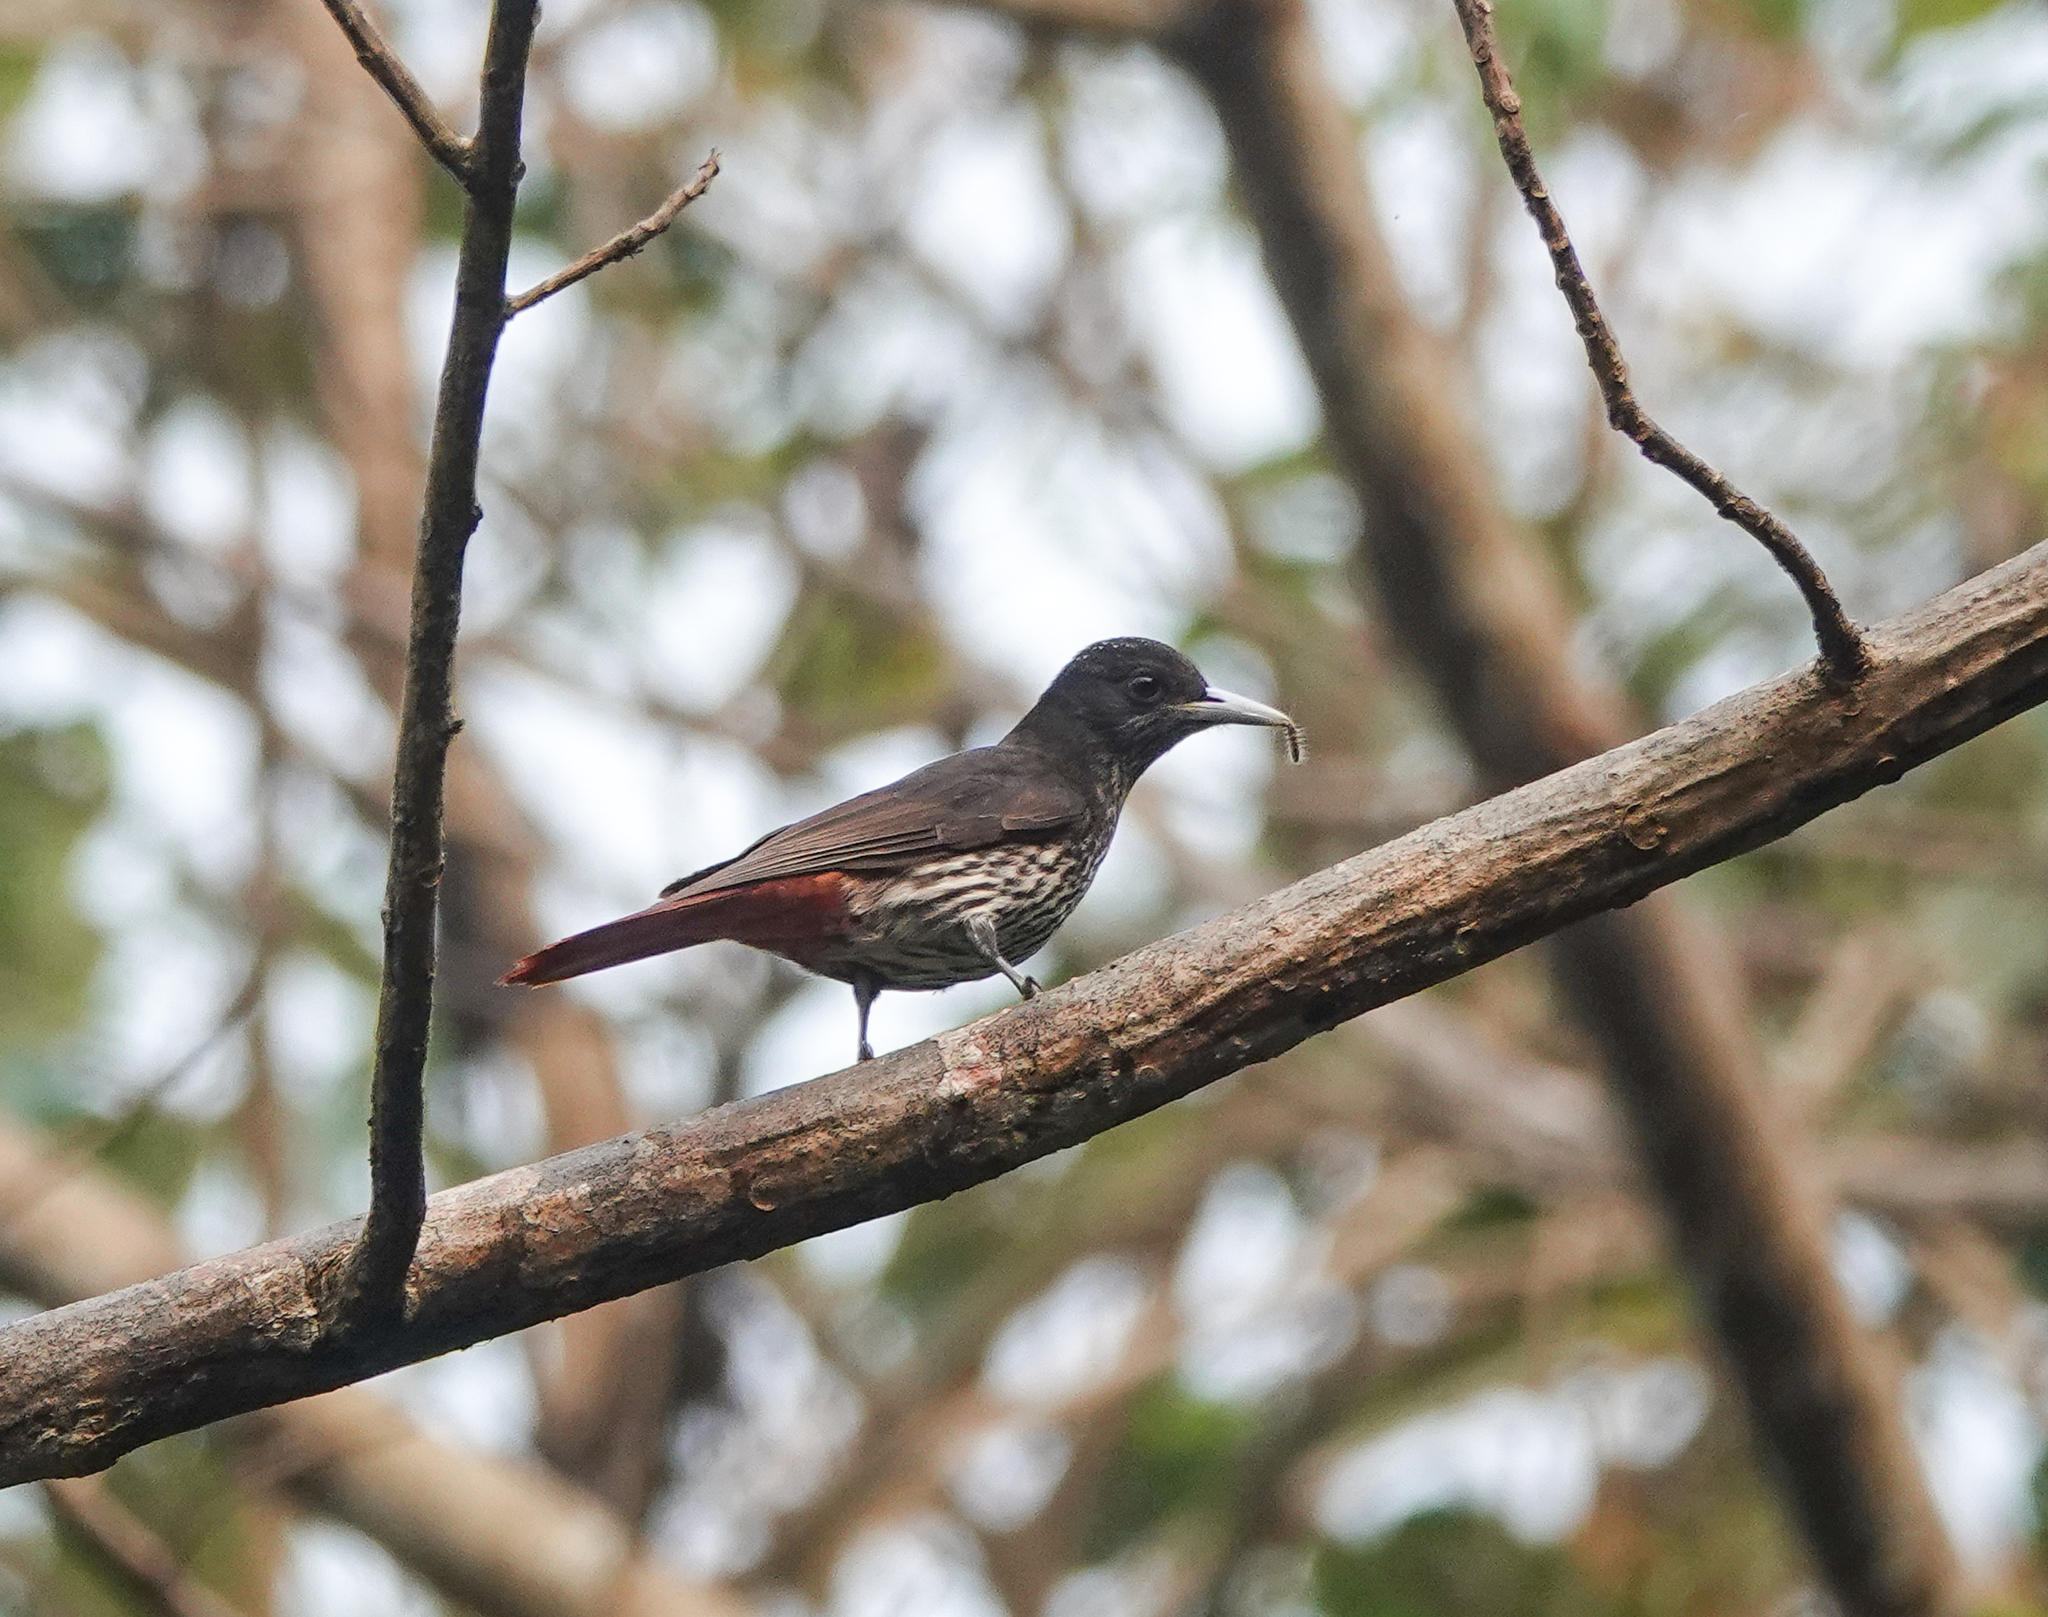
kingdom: Animalia
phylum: Chordata
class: Aves
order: Passeriformes
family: Oriolidae
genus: Oriolus
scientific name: Oriolus traillii
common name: Maroon oriole
